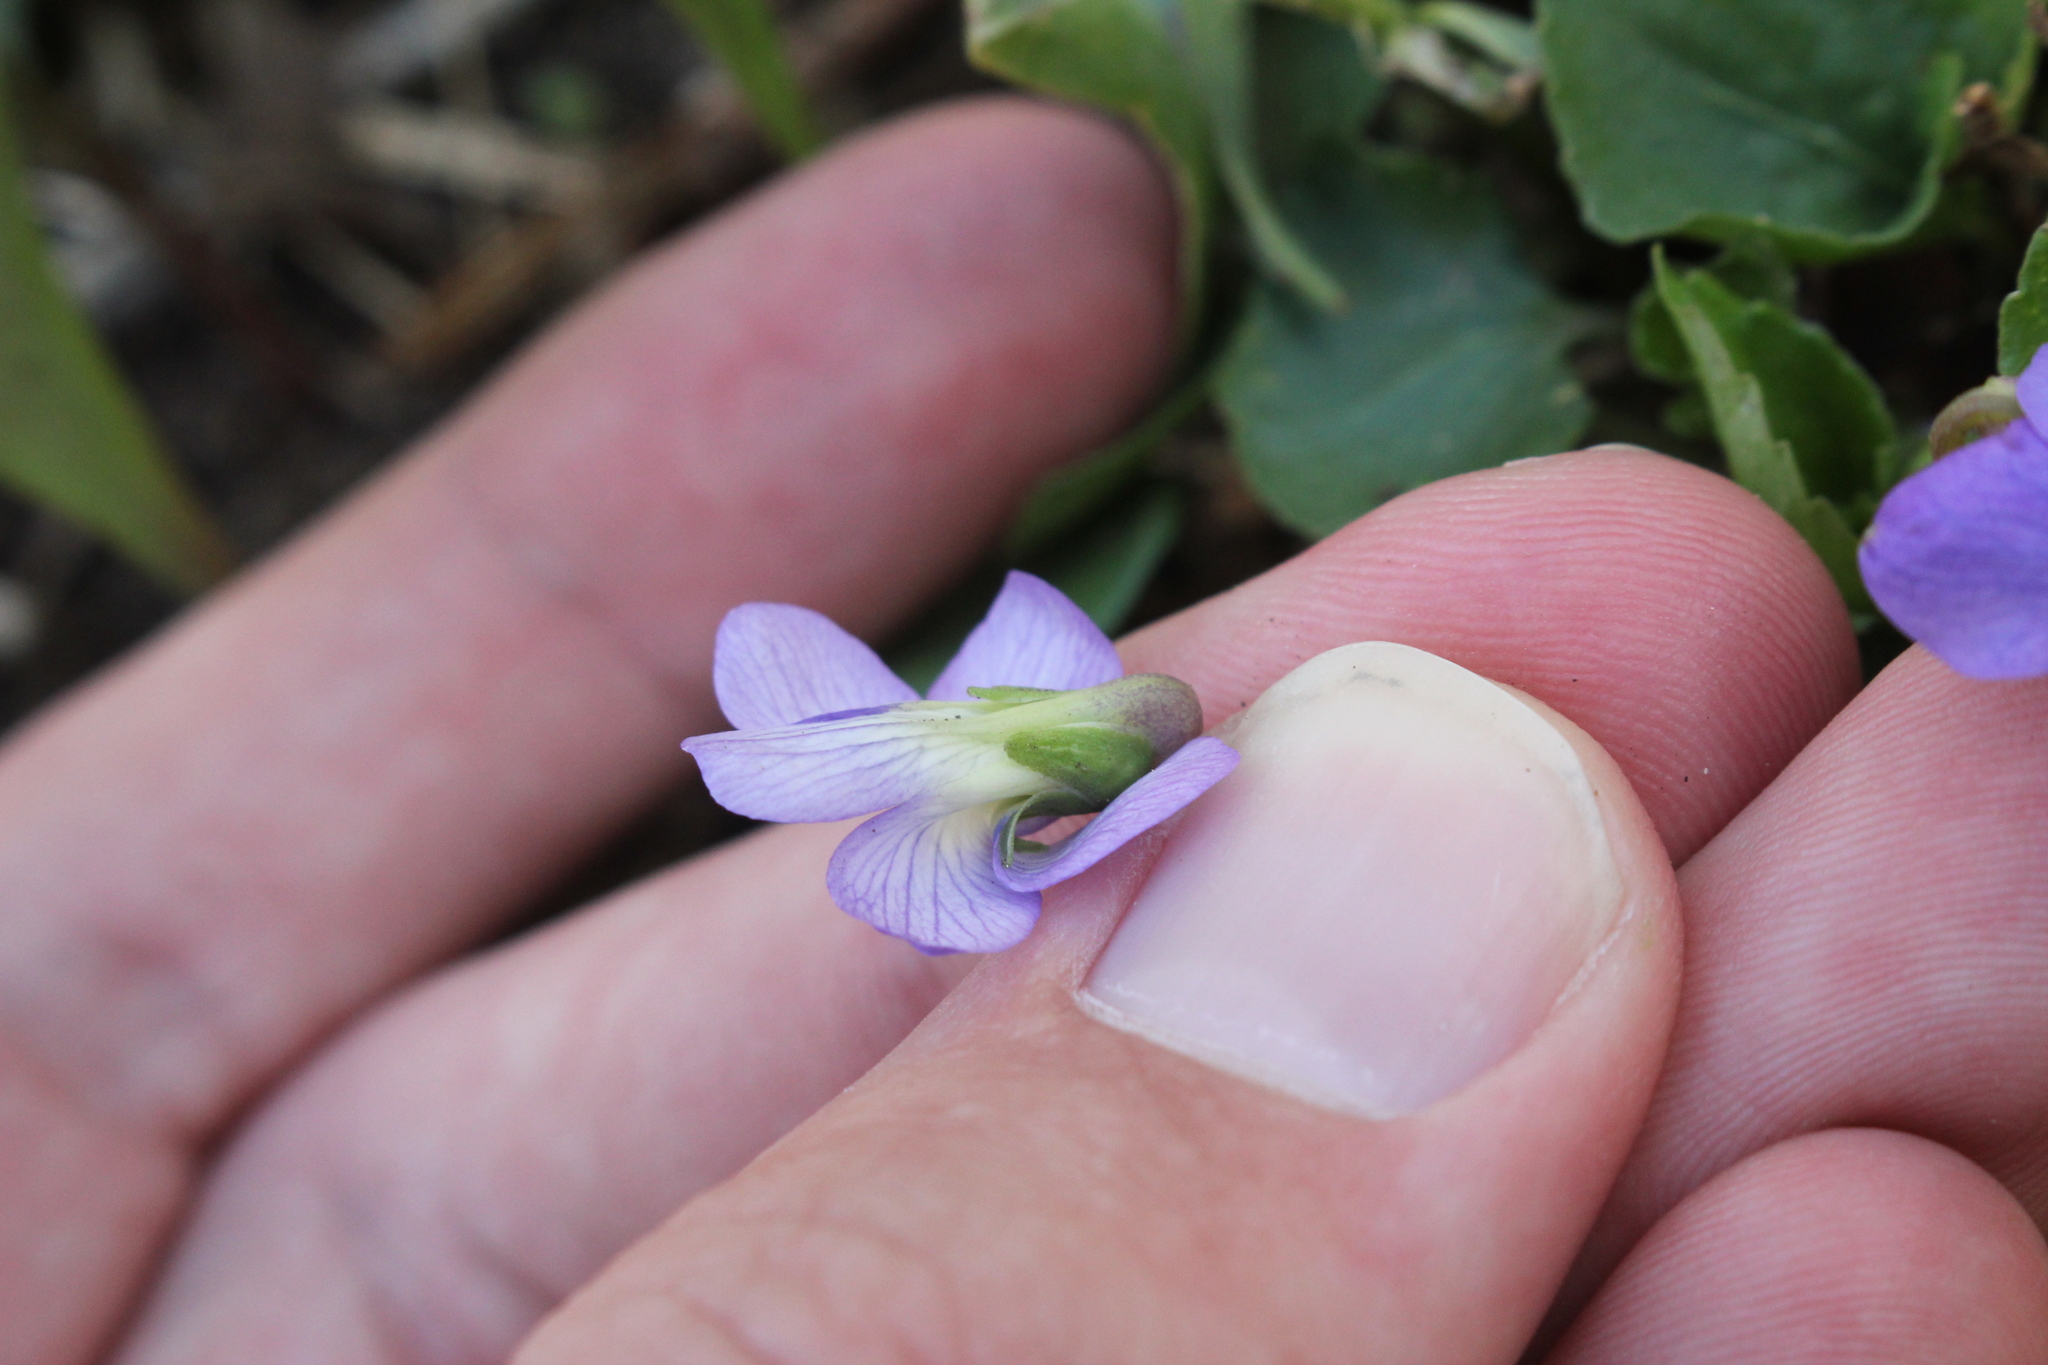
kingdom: Plantae
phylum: Tracheophyta
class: Magnoliopsida
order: Malpighiales
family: Violaceae
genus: Viola
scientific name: Viola sororia
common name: Dooryard violet
